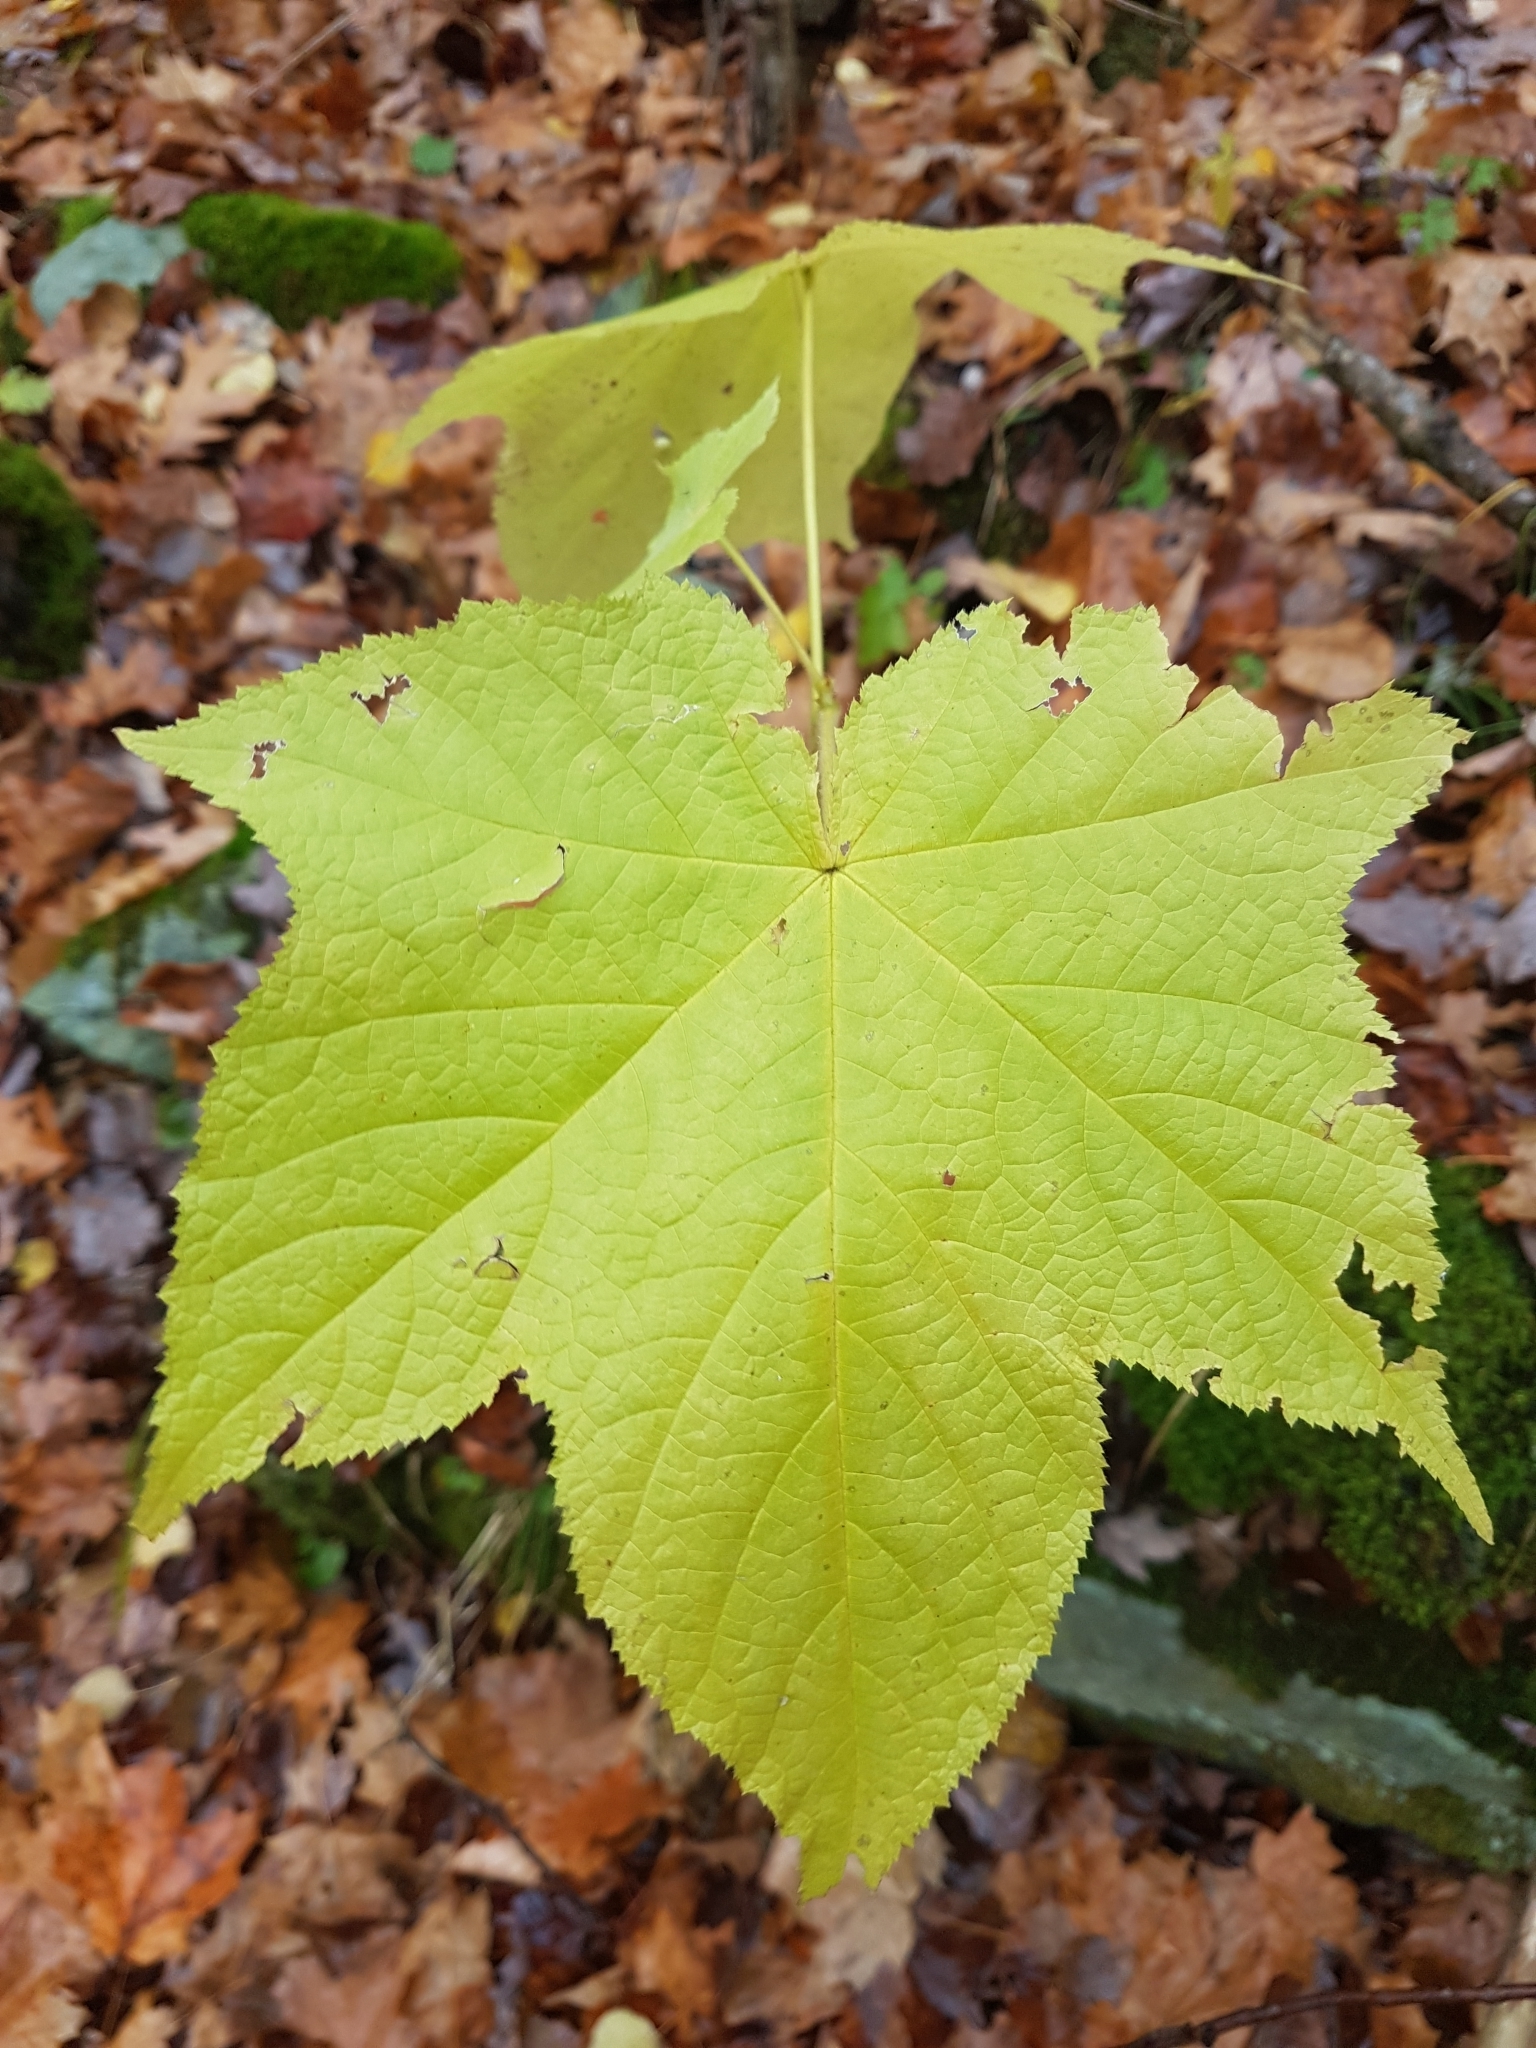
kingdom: Plantae
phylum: Tracheophyta
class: Magnoliopsida
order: Rosales
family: Rosaceae
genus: Rubus
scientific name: Rubus odoratus
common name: Purple-flowered raspberry
